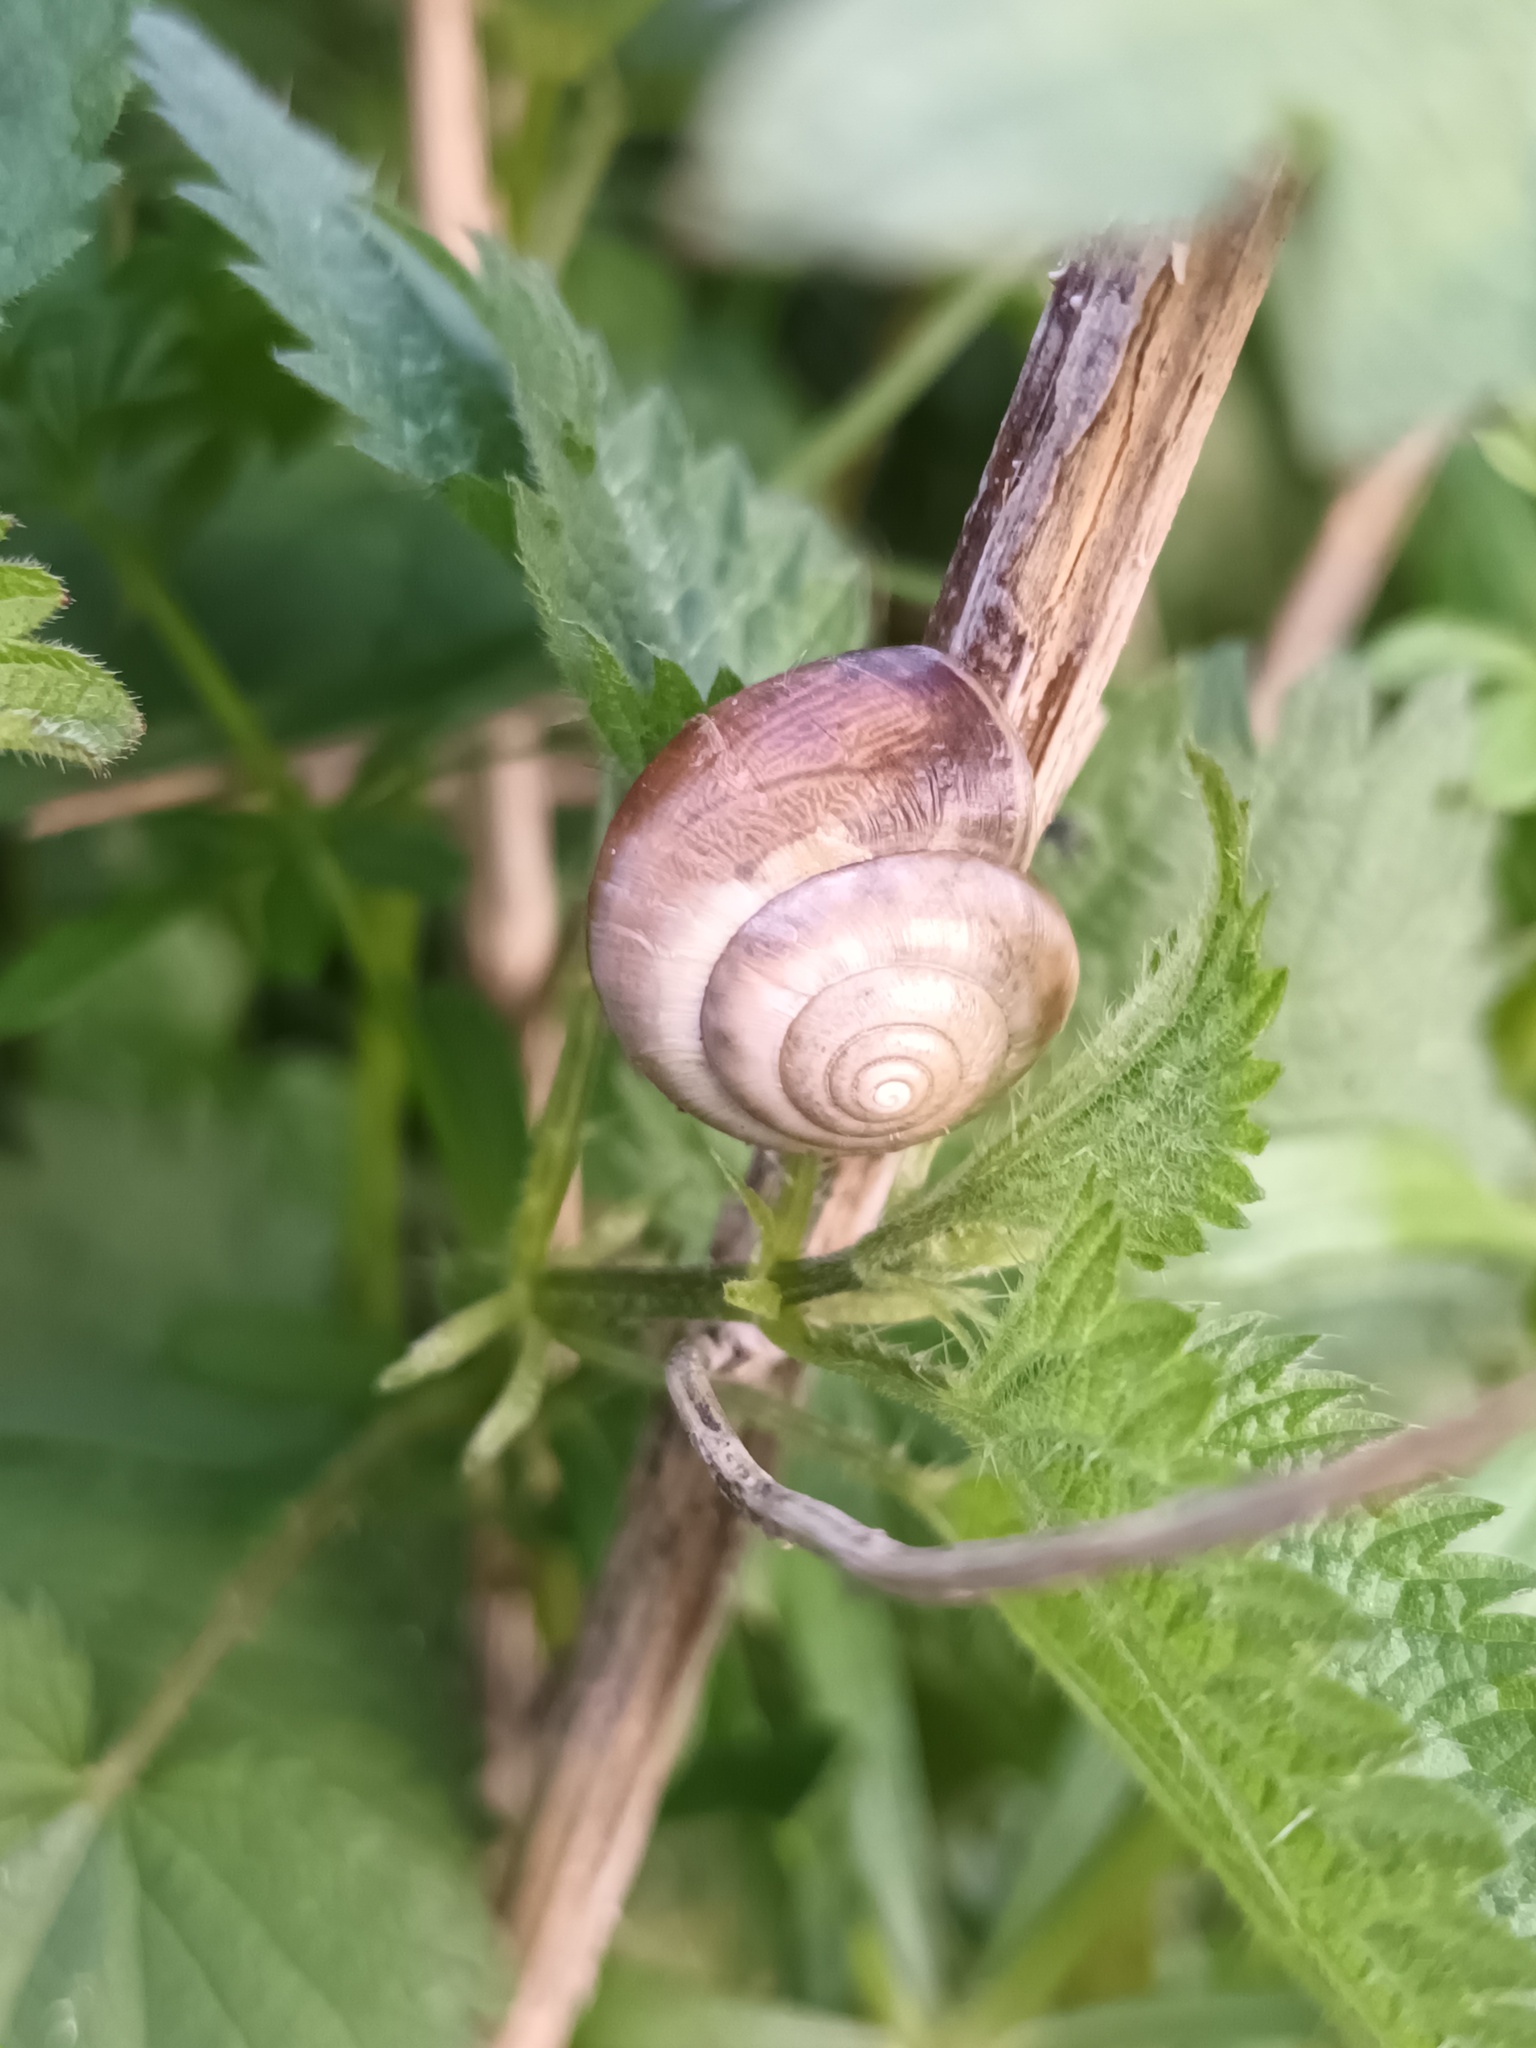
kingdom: Animalia
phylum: Mollusca
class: Gastropoda
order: Stylommatophora
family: Hygromiidae
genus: Monacha
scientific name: Monacha cantiana
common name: Kentish snail
